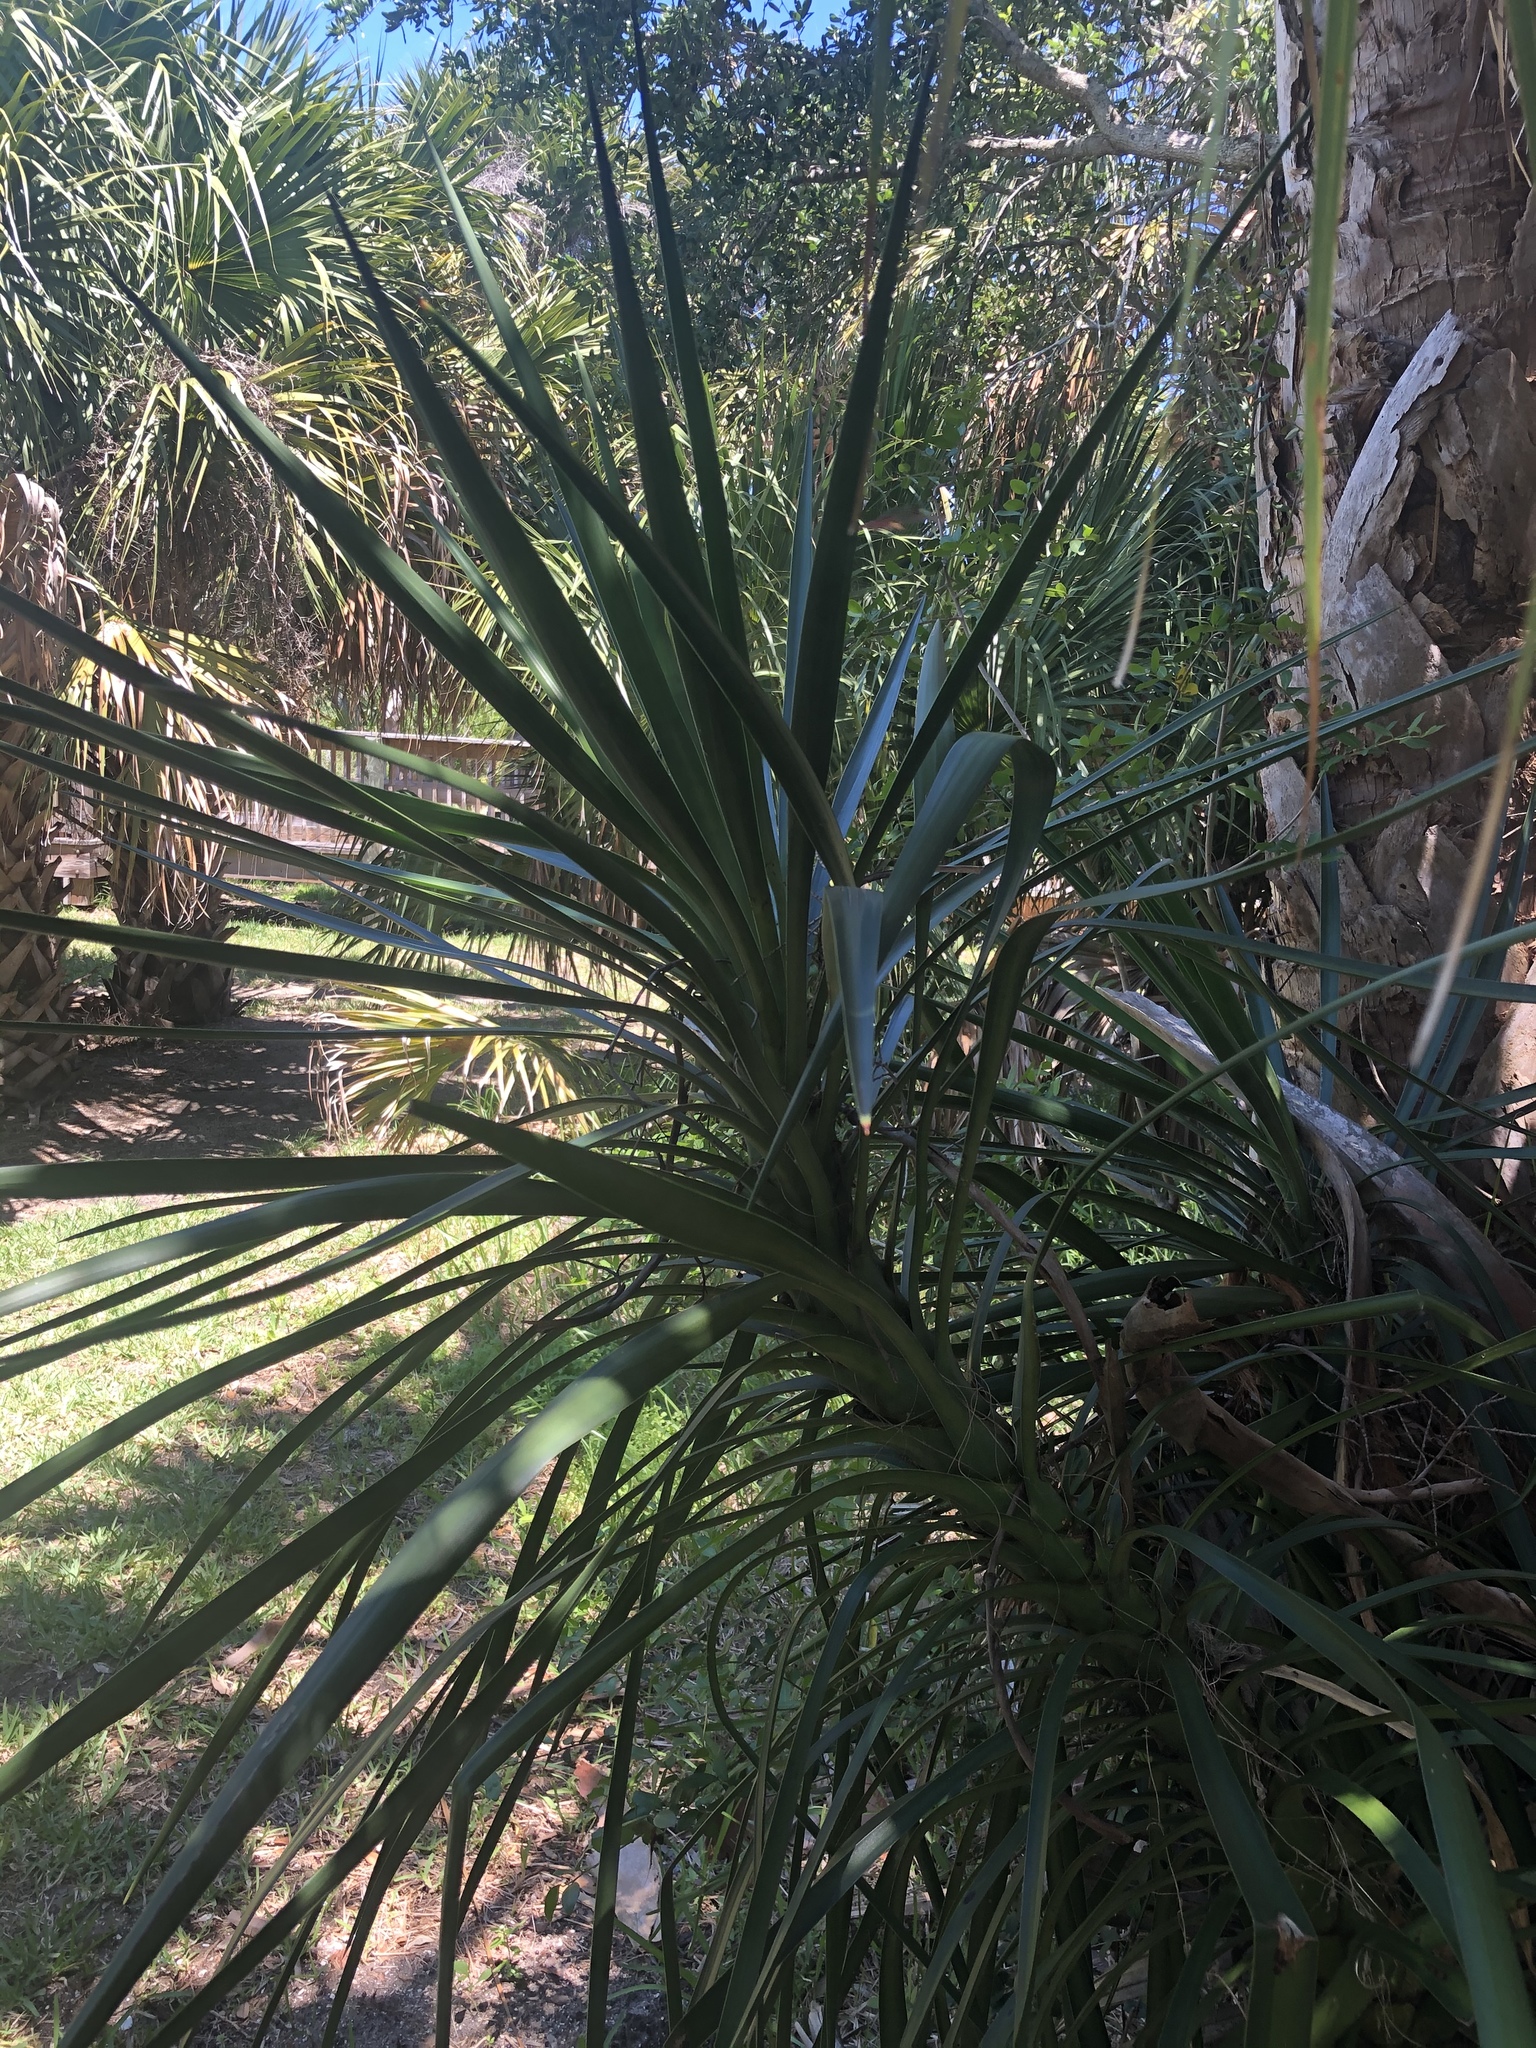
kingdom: Plantae
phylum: Tracheophyta
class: Liliopsida
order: Asparagales
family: Asparagaceae
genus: Yucca
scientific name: Yucca aloifolia
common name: Aloe yucca
